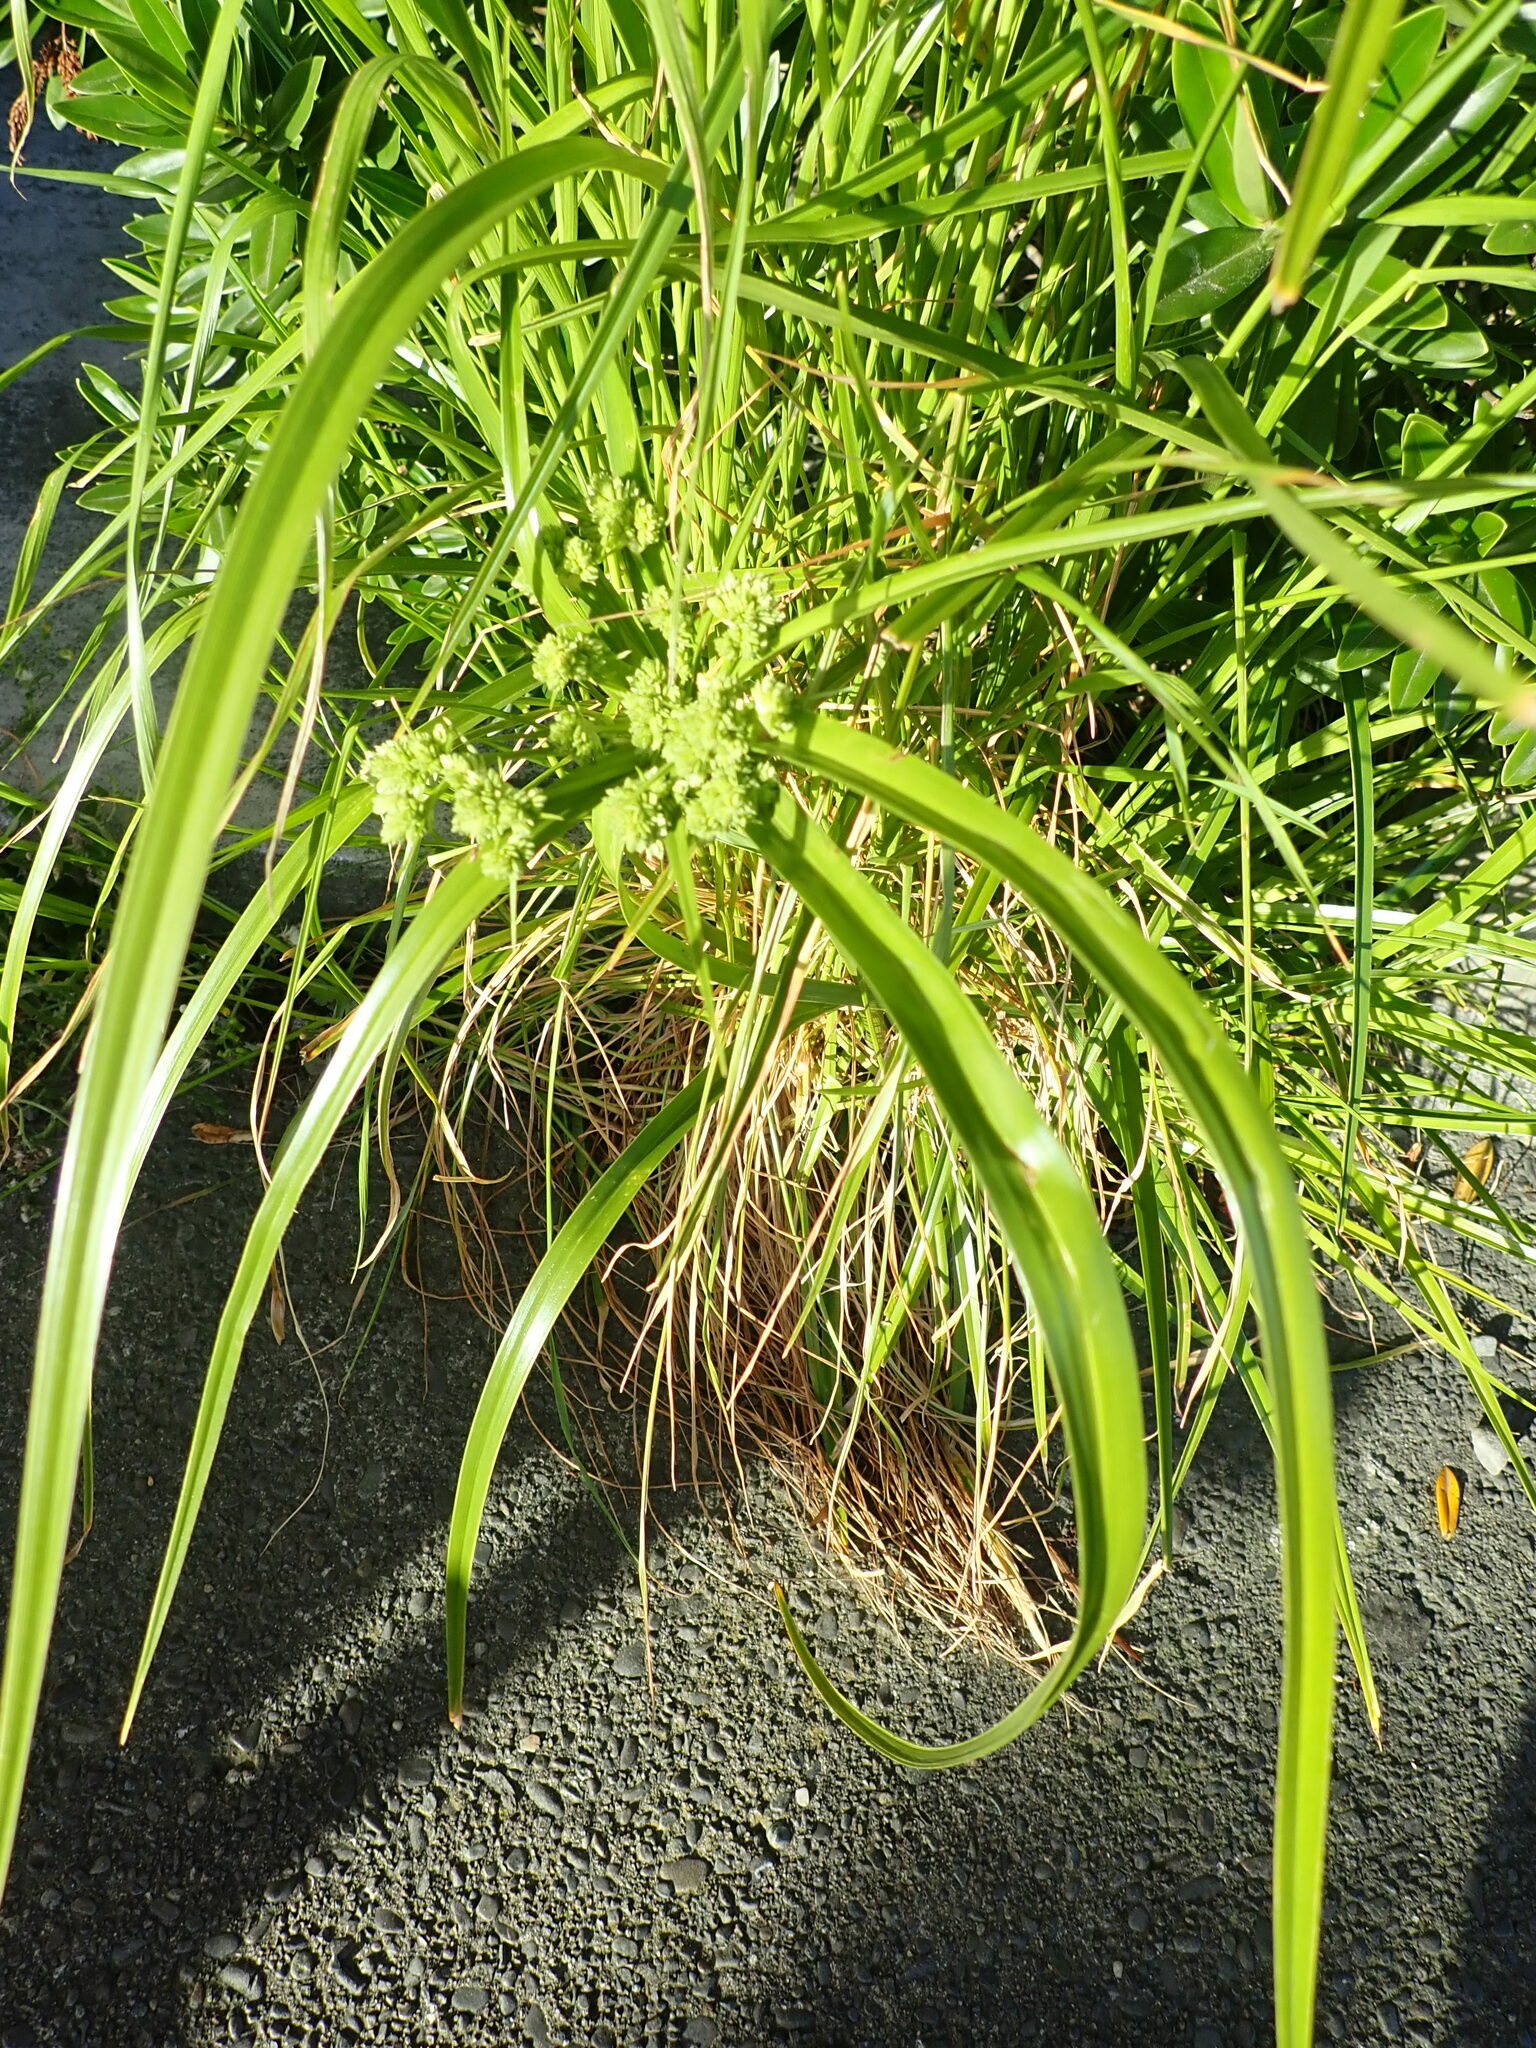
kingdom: Plantae
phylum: Tracheophyta
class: Liliopsida
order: Poales
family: Cyperaceae
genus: Cyperus
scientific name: Cyperus eragrostis
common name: Tall flatsedge
